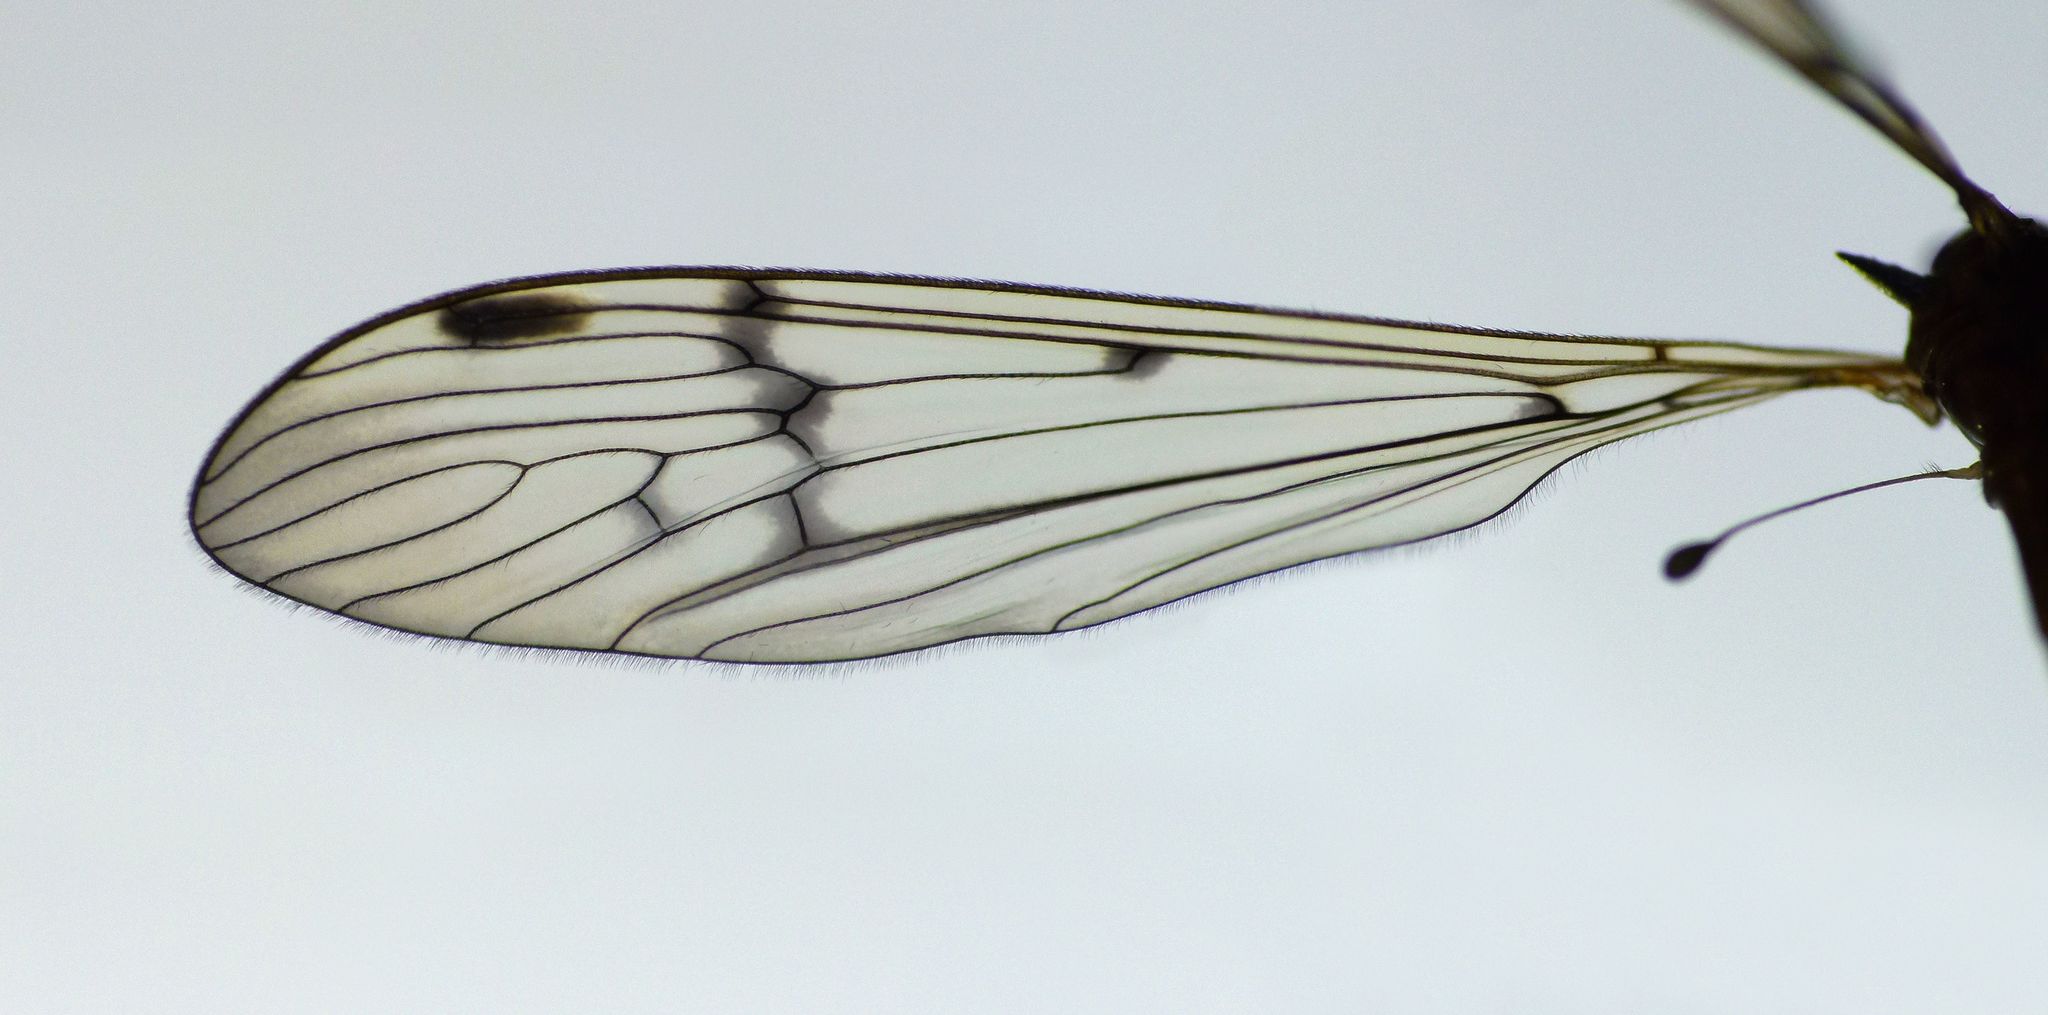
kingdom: Animalia
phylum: Arthropoda
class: Insecta
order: Diptera
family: Limoniidae
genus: Limnophilella
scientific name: Limnophilella serotina
